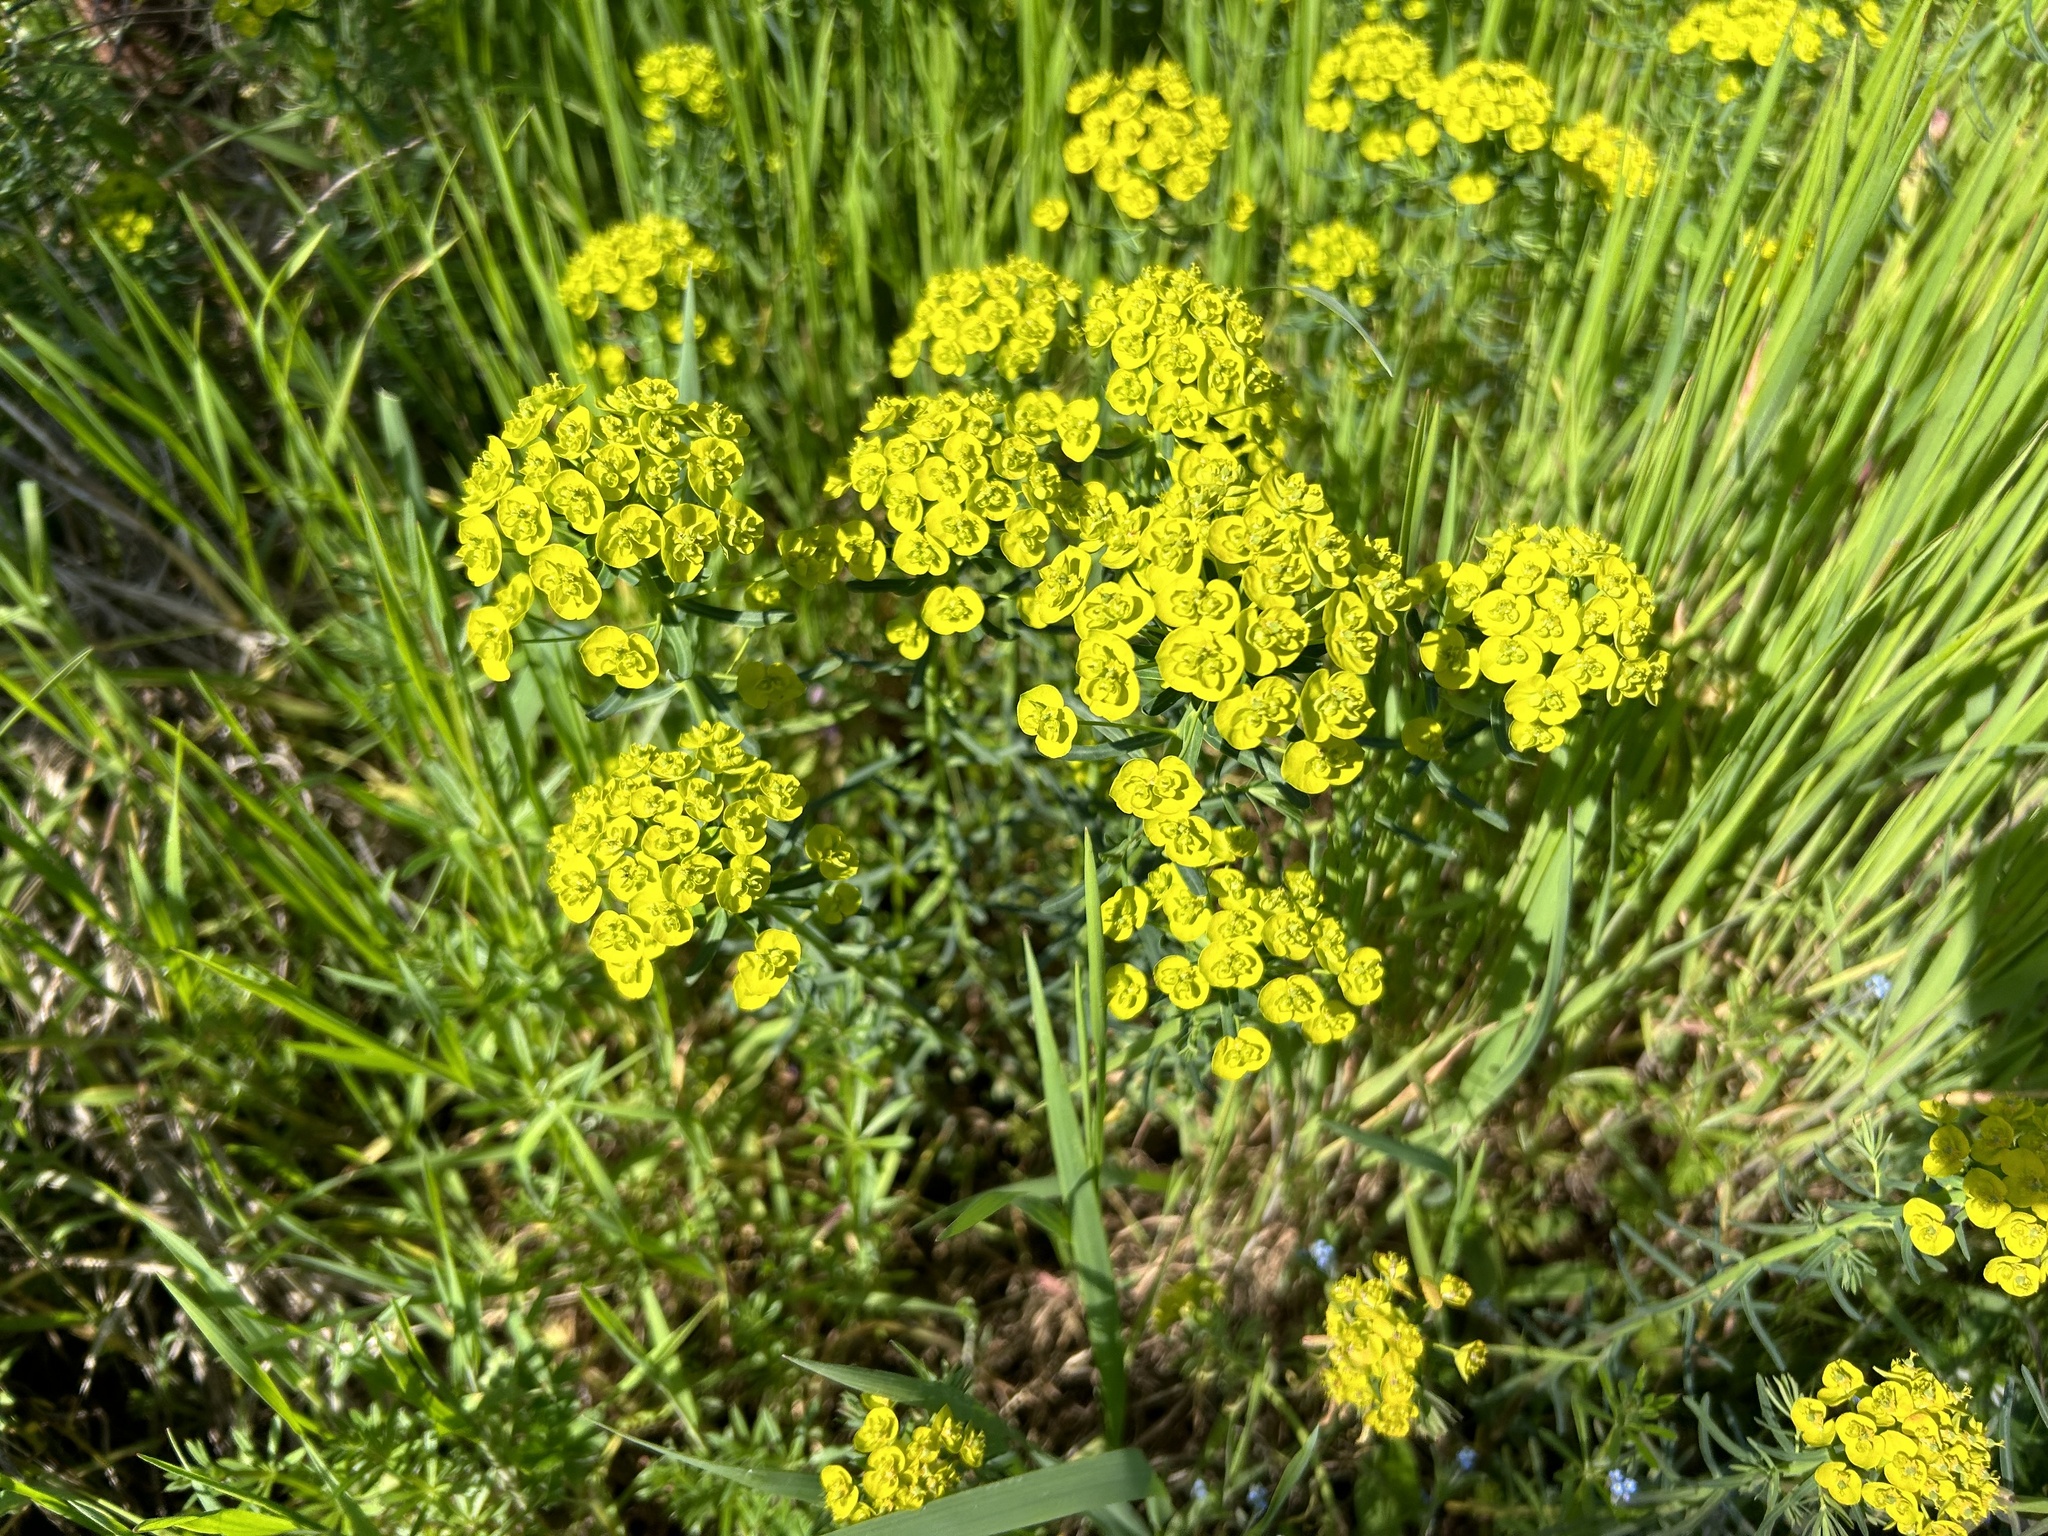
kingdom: Plantae
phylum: Tracheophyta
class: Magnoliopsida
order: Malpighiales
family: Euphorbiaceae
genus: Euphorbia
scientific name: Euphorbia cyparissias
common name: Cypress spurge
